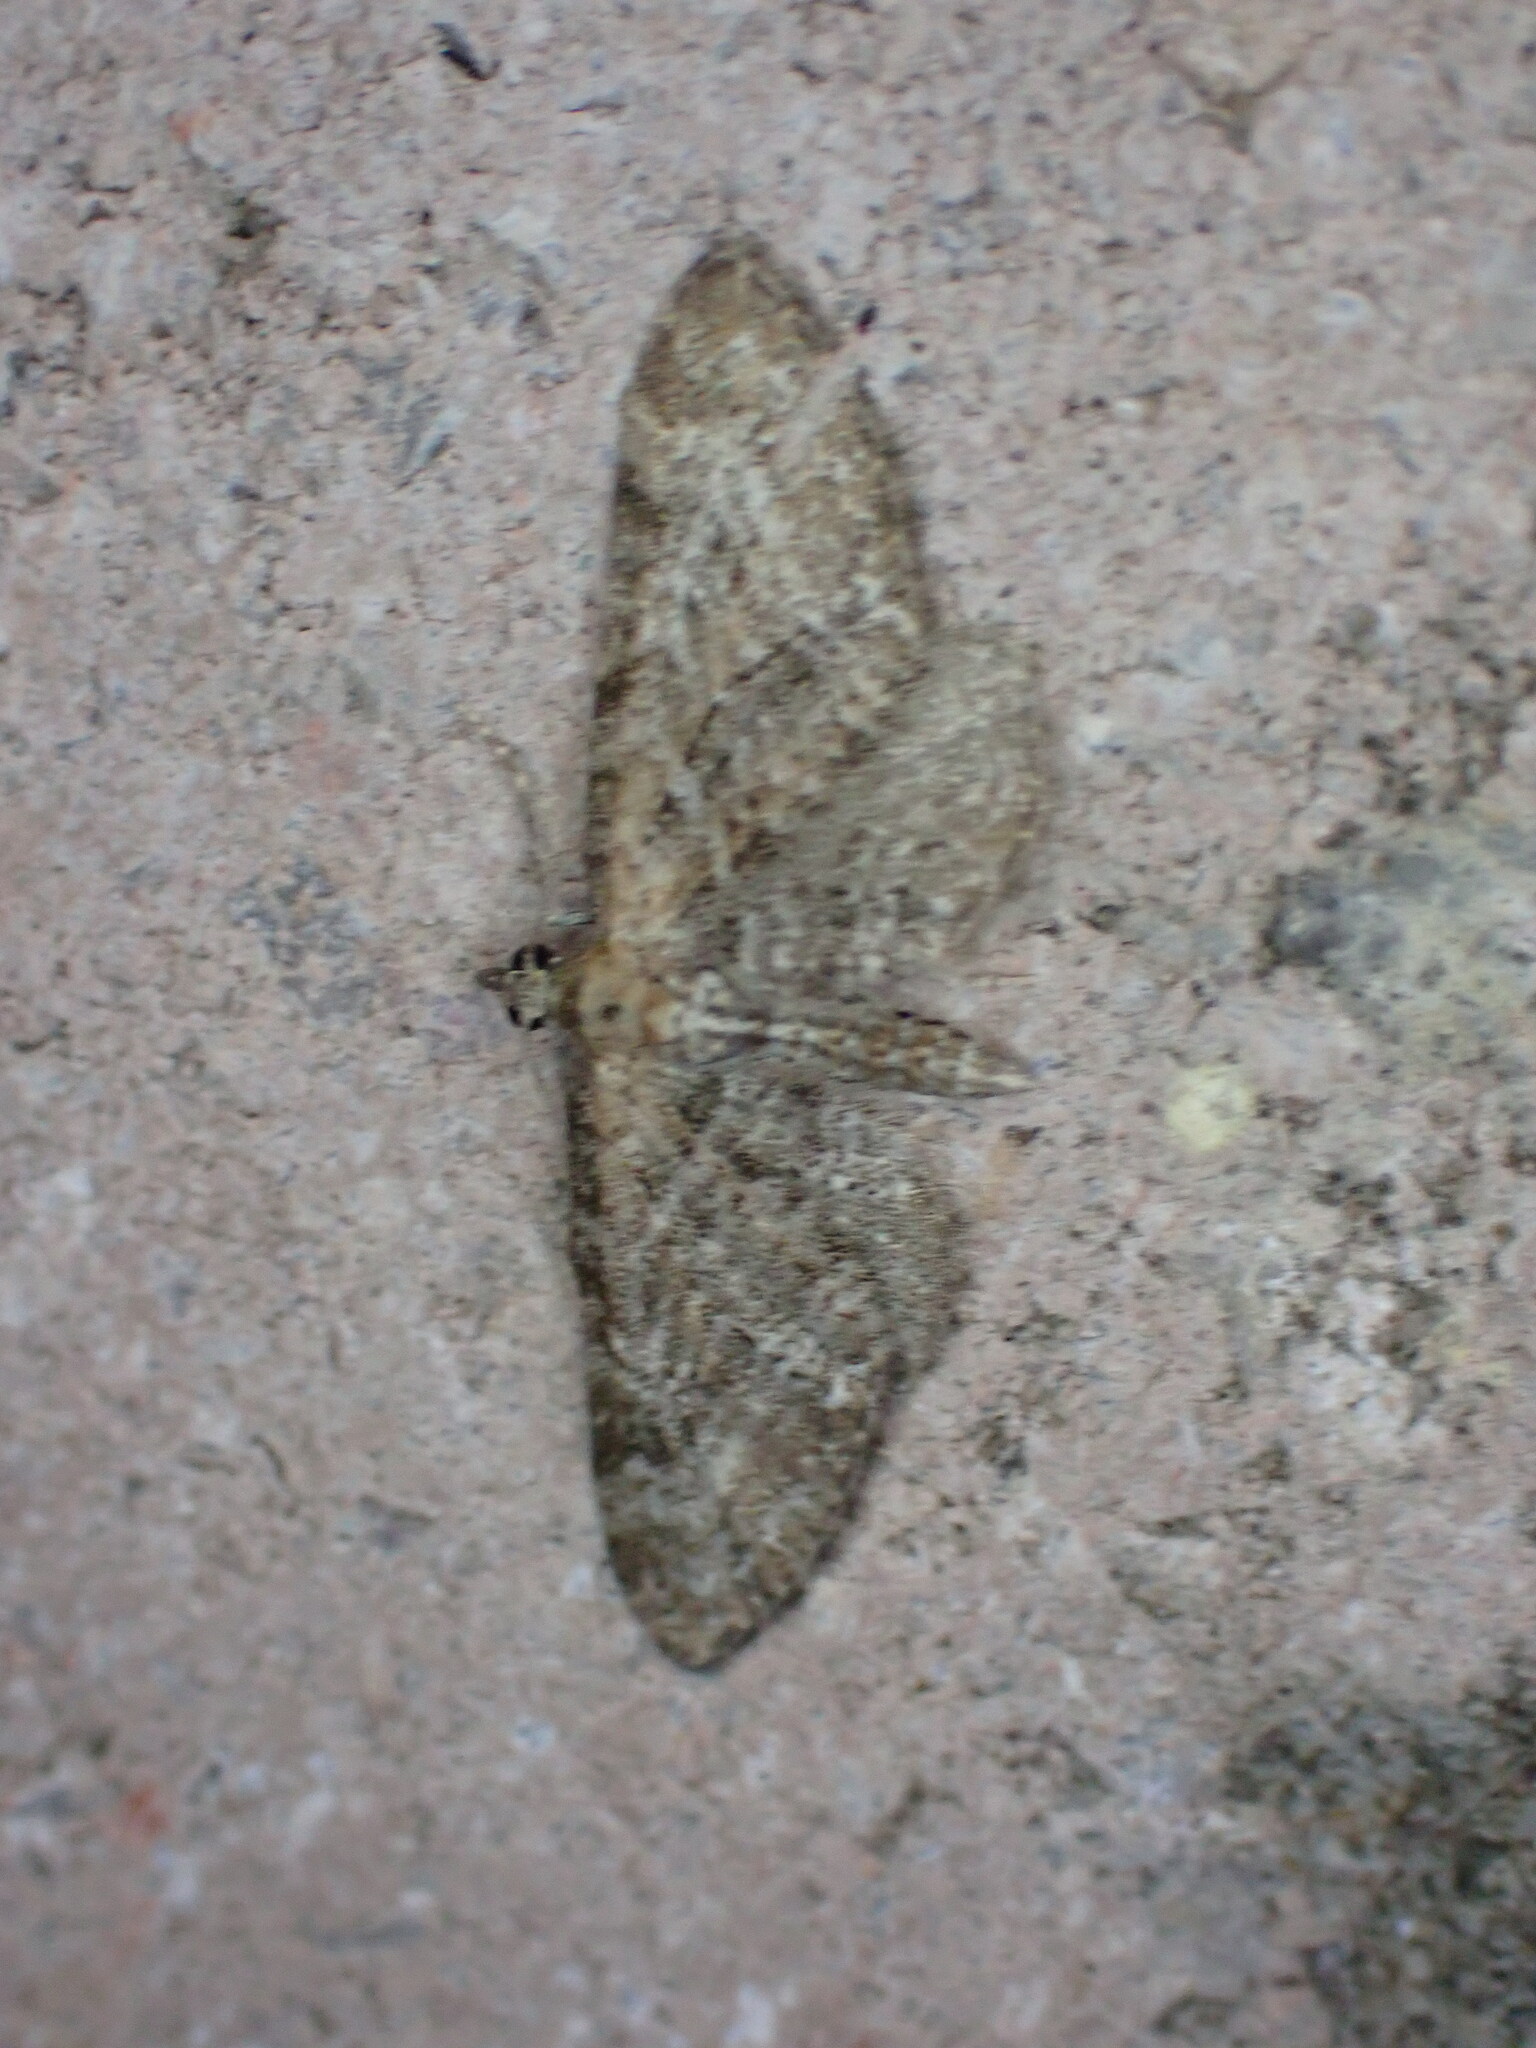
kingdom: Animalia
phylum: Arthropoda
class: Insecta
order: Lepidoptera
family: Geometridae
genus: Eupithecia
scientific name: Eupithecia vulgata
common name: Common pug
